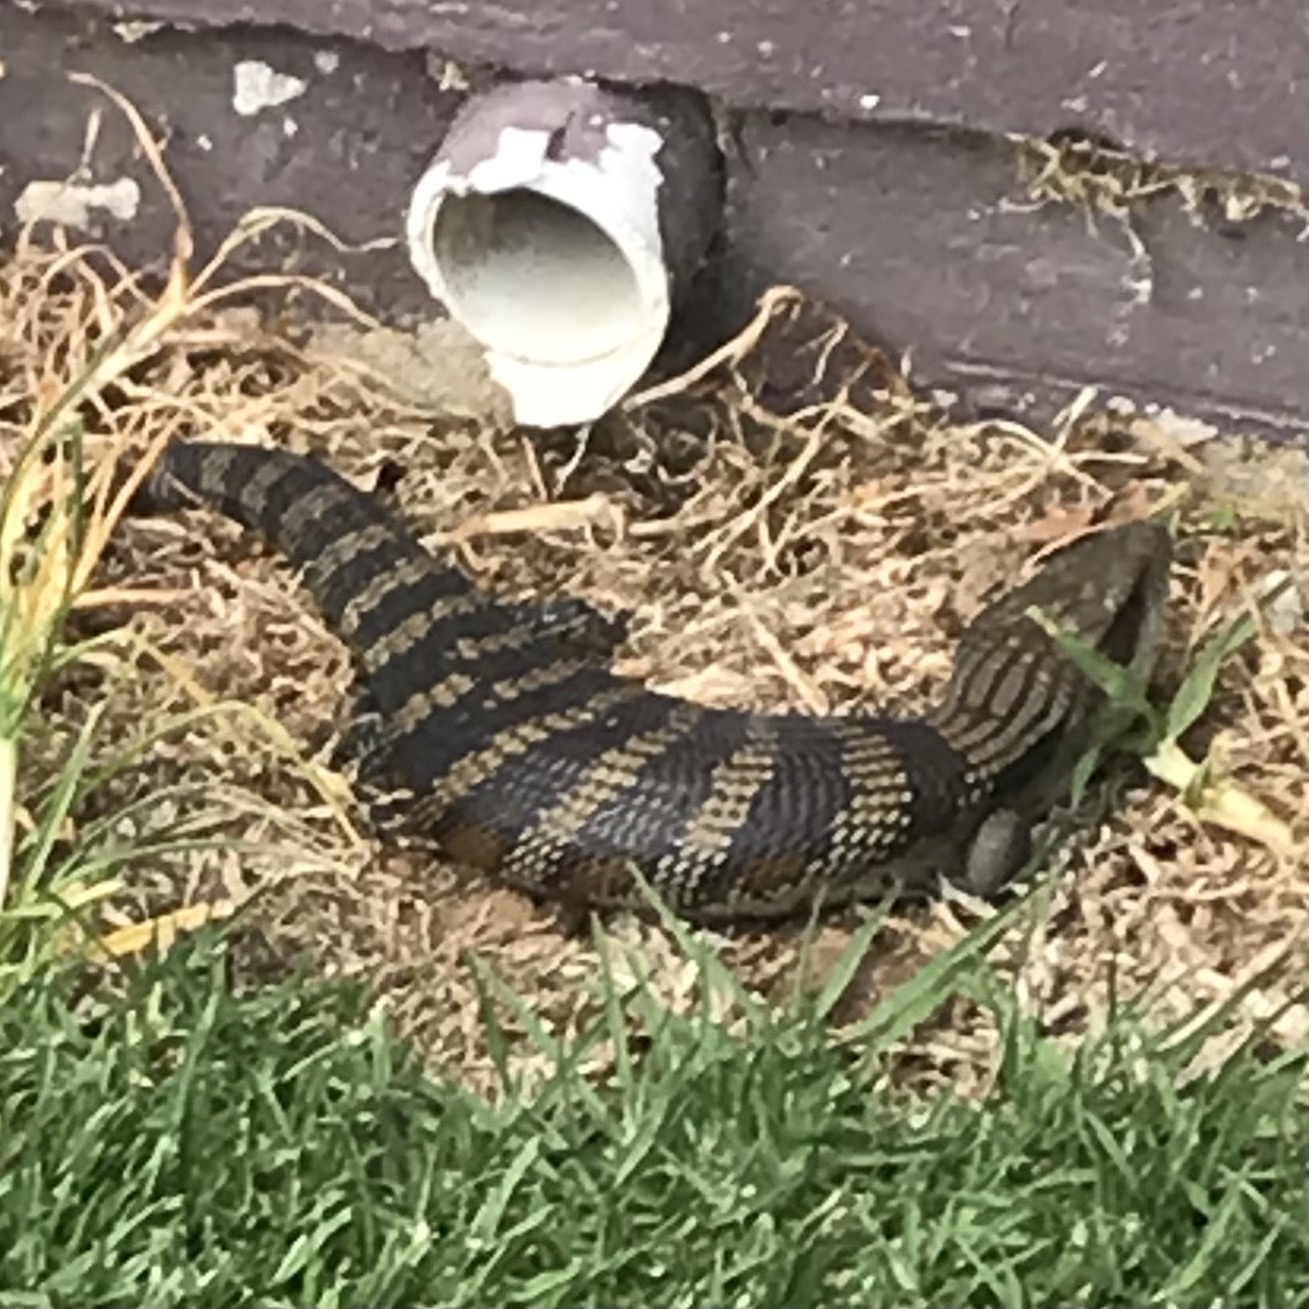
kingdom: Animalia
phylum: Chordata
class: Squamata
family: Scincidae
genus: Tiliqua
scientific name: Tiliqua scincoides
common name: Common bluetongue
